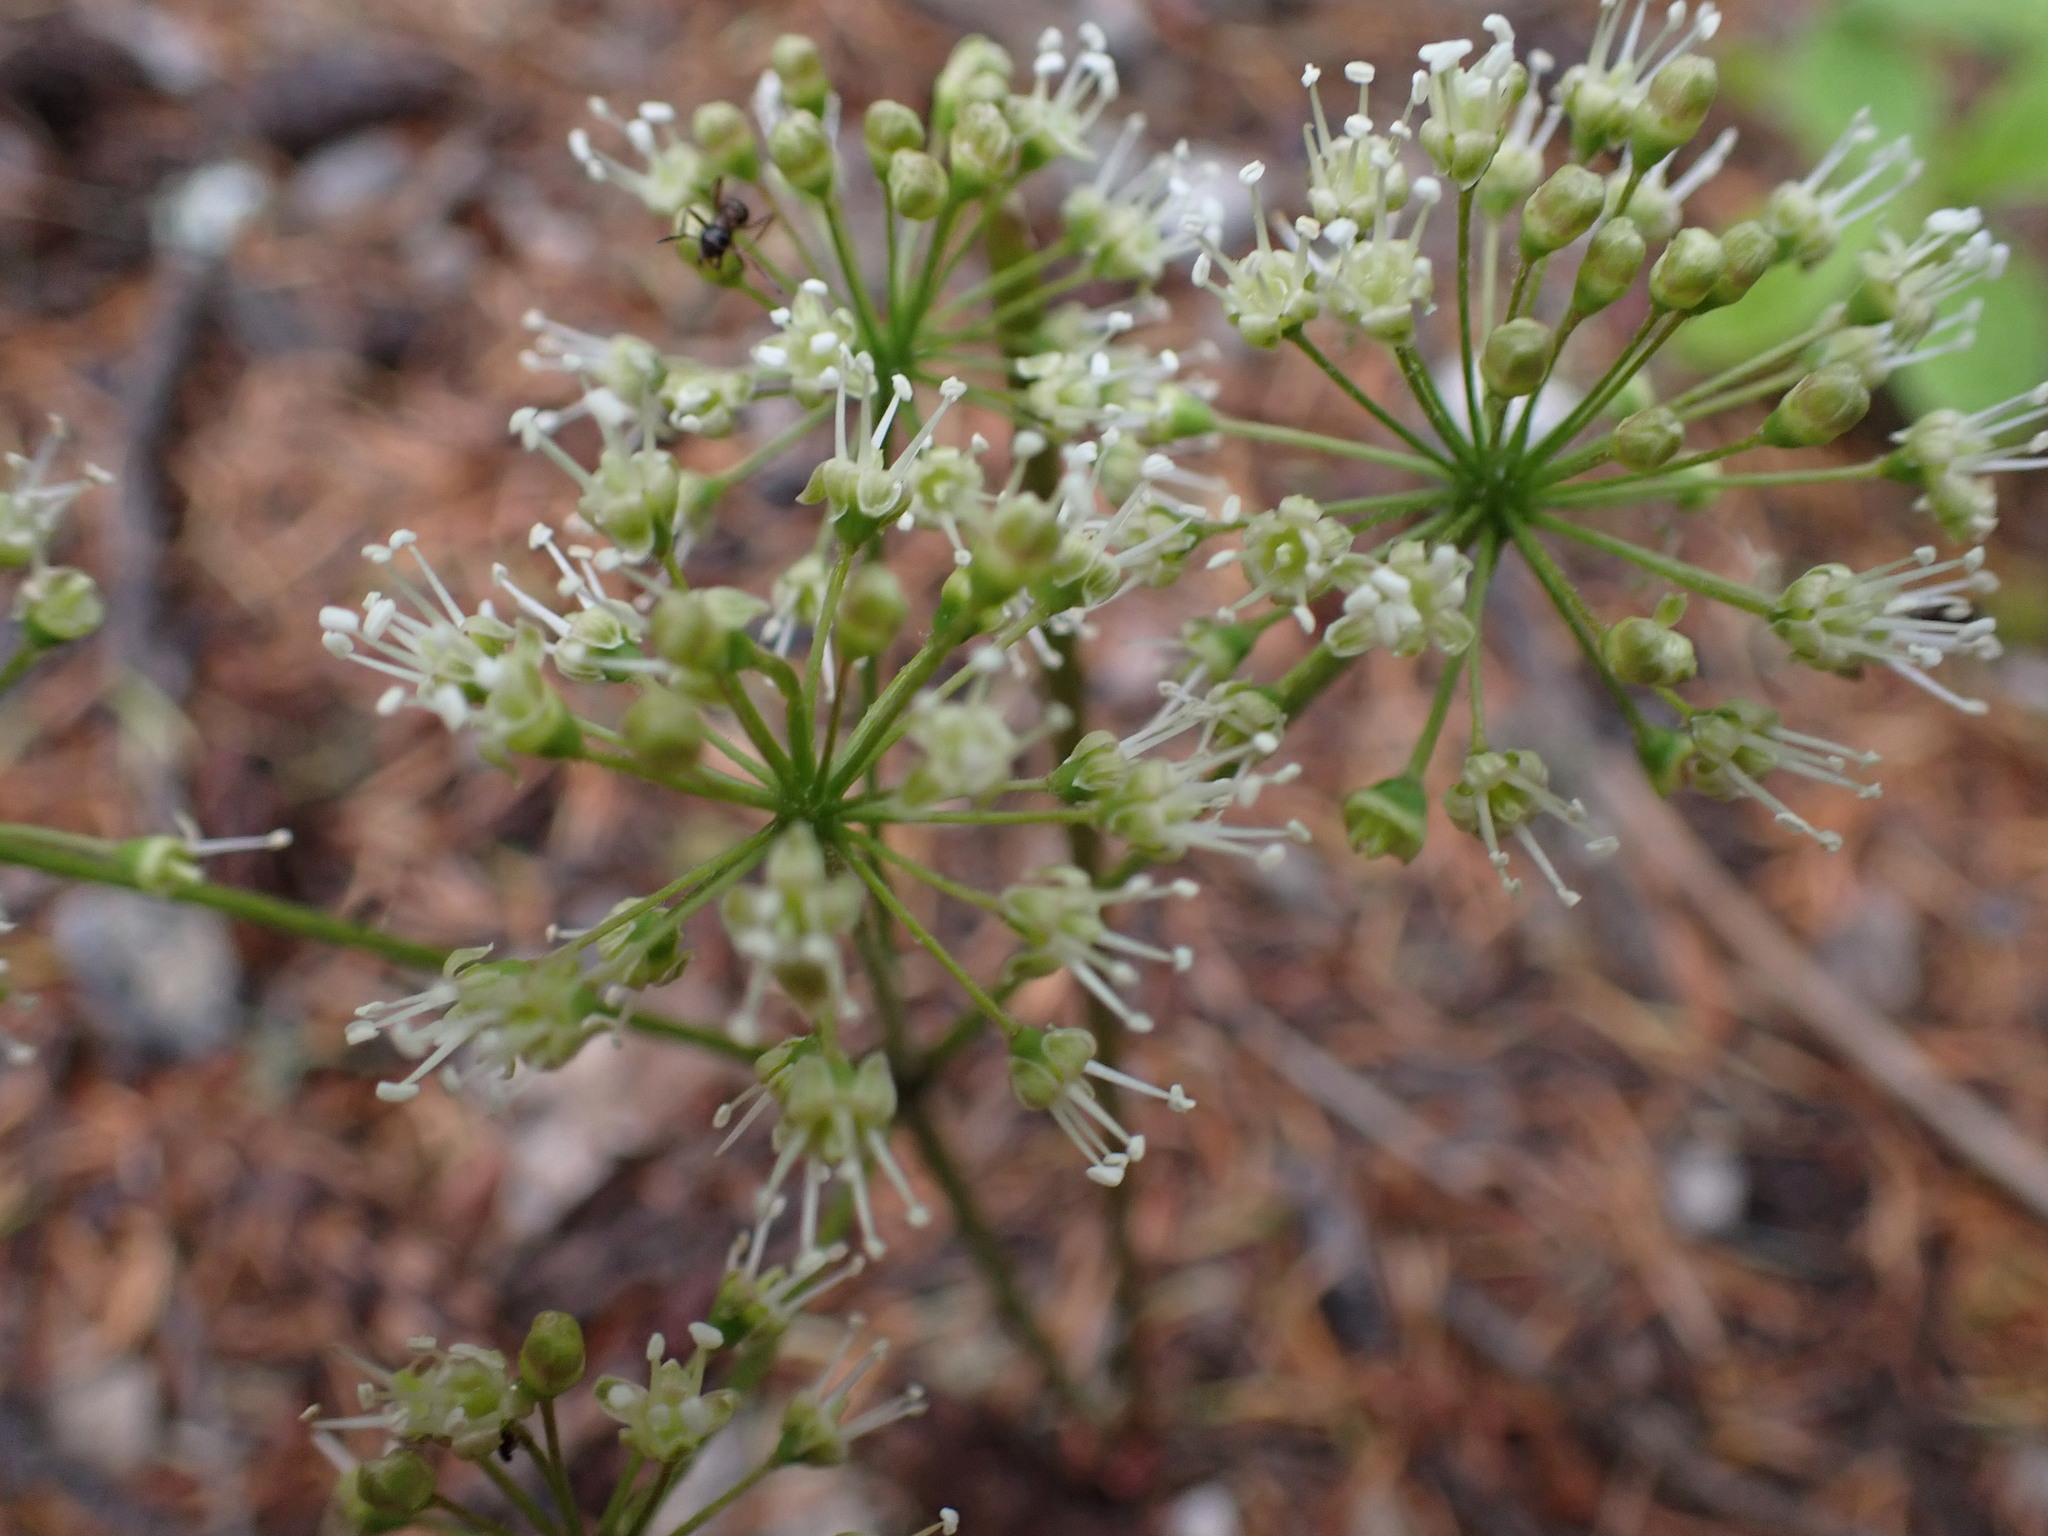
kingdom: Plantae
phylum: Tracheophyta
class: Magnoliopsida
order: Apiales
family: Araliaceae
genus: Aralia
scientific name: Aralia nudicaulis
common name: Wild sarsaparilla
